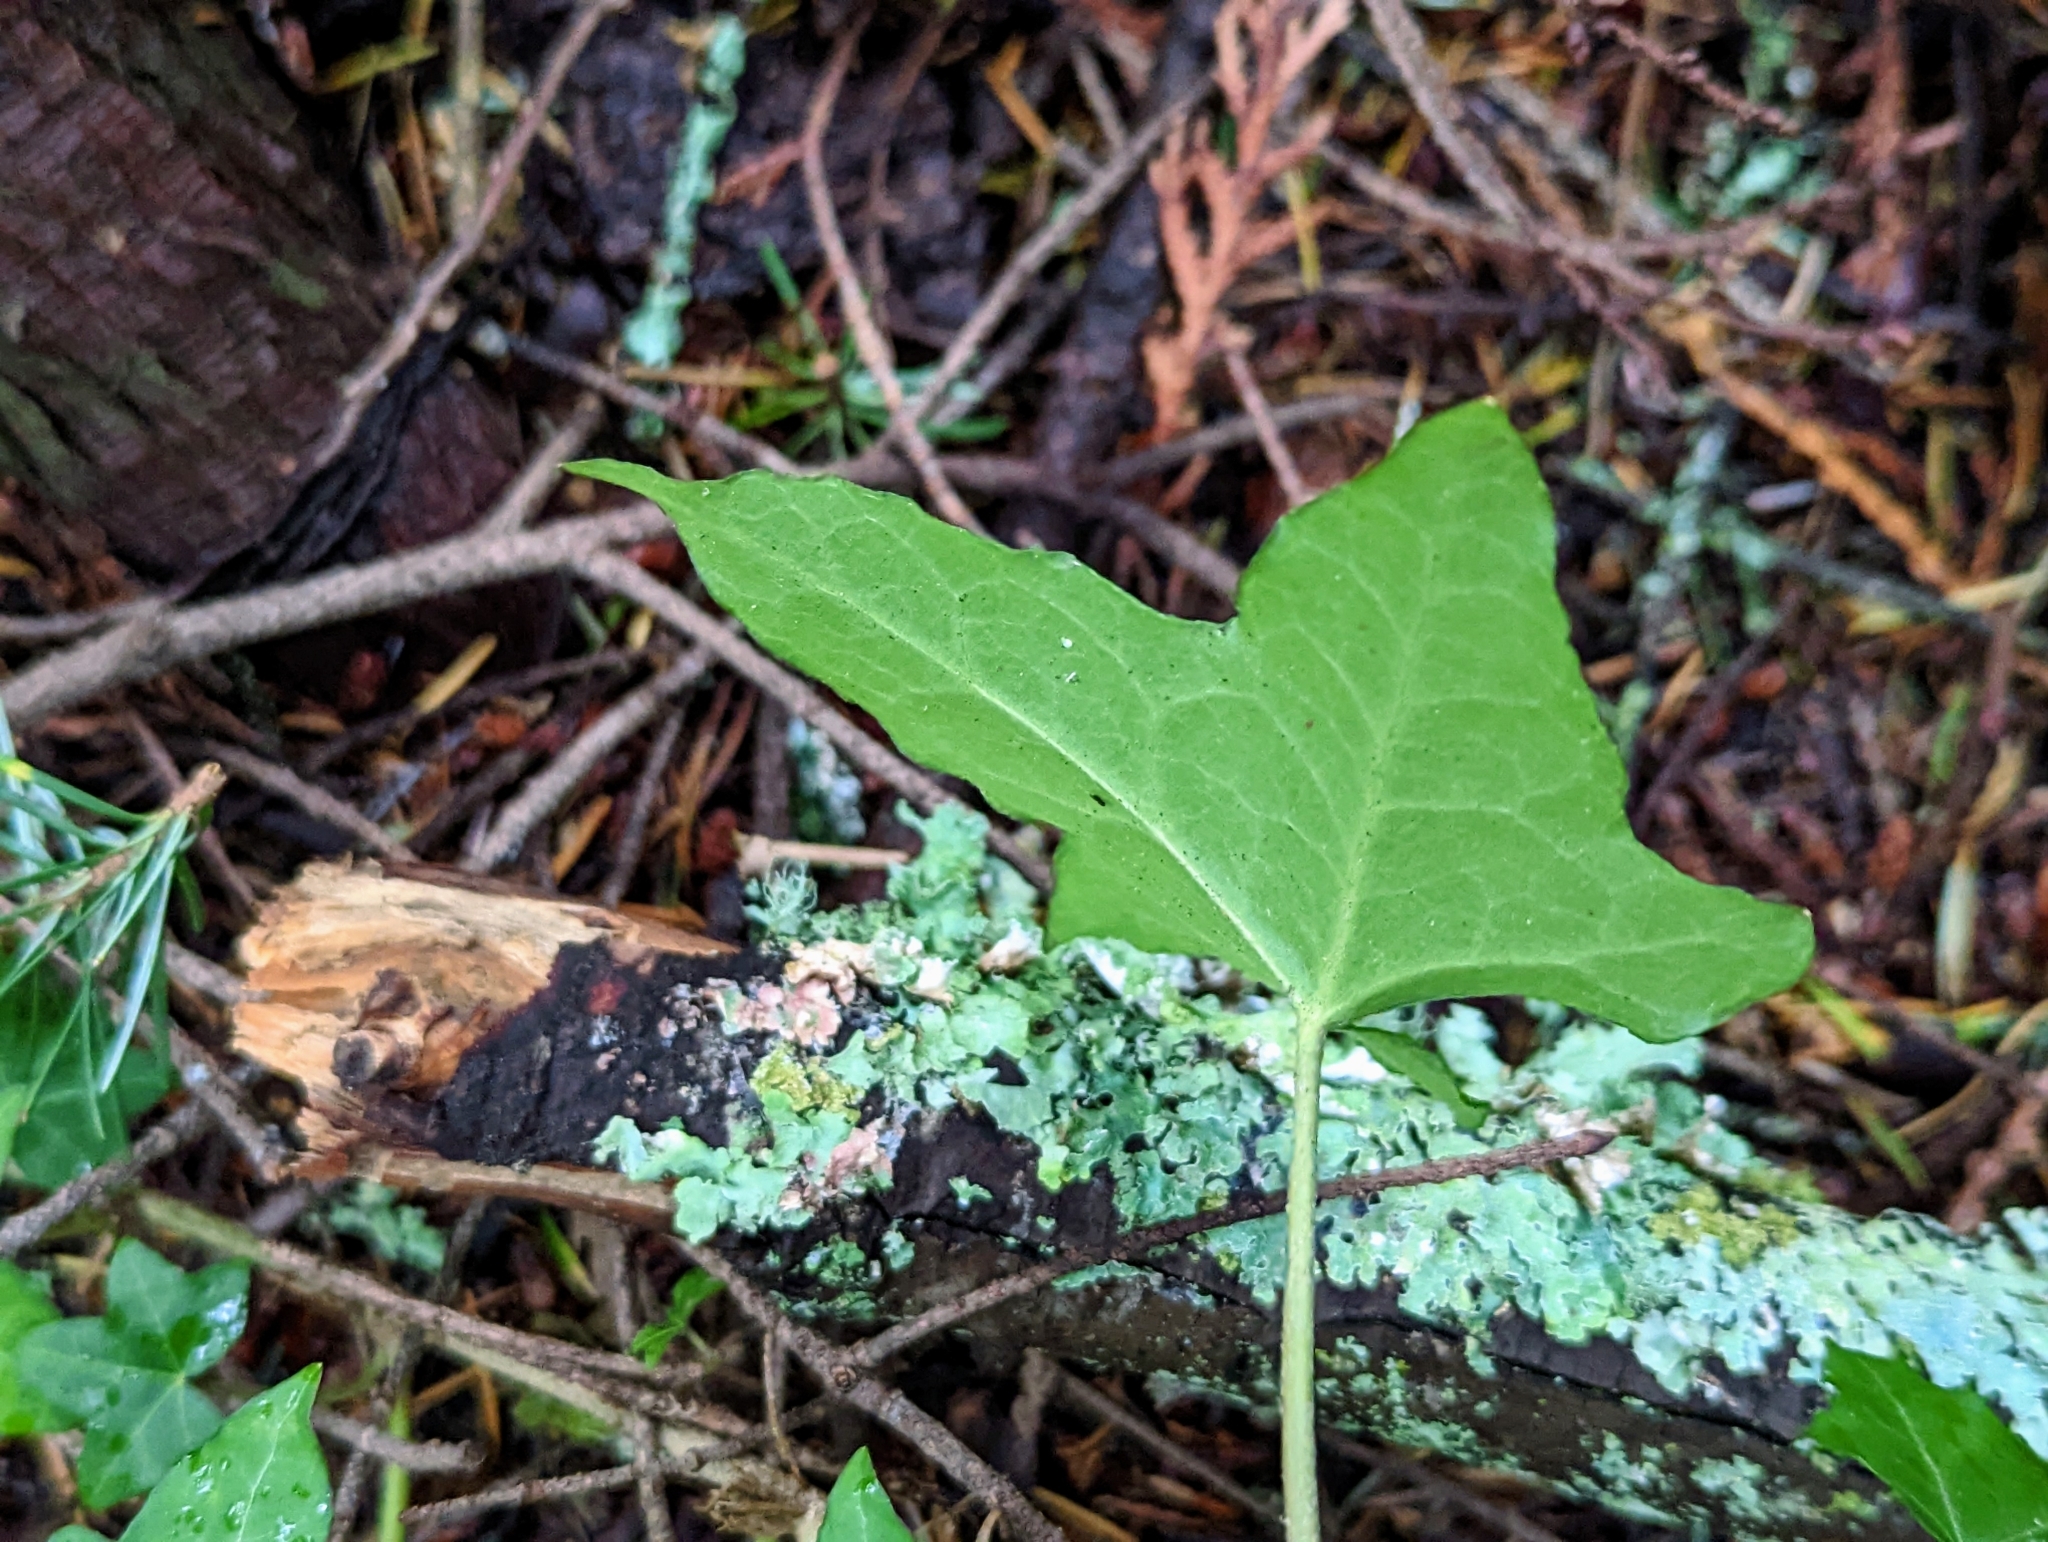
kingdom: Plantae
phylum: Tracheophyta
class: Magnoliopsida
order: Apiales
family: Araliaceae
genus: Hedera
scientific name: Hedera helix
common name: Ivy
